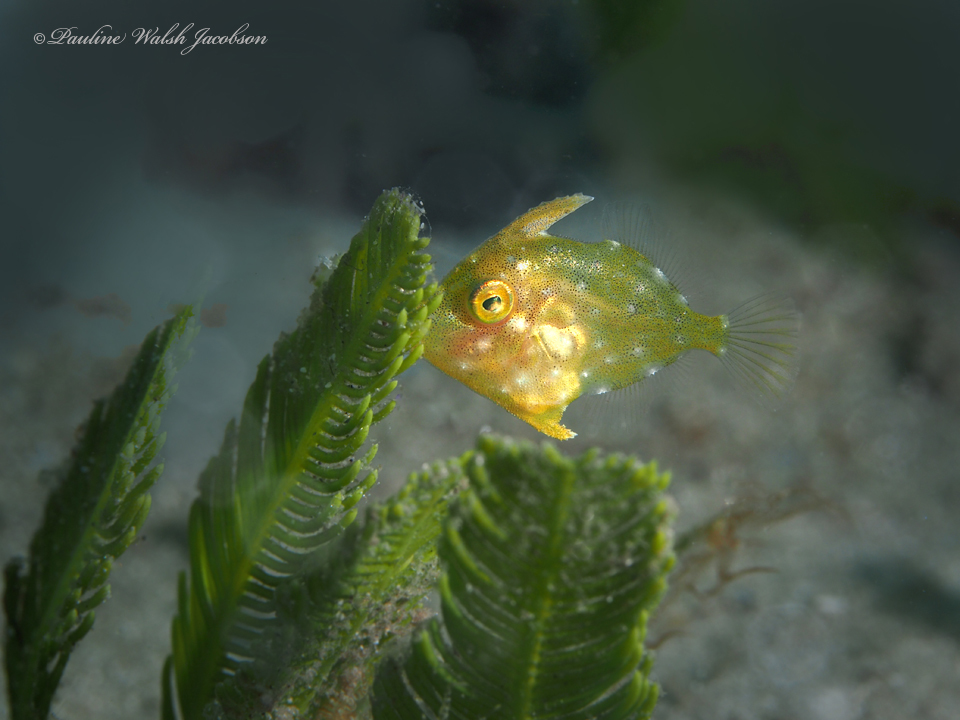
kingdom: Animalia
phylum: Chordata
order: Tetraodontiformes
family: Monacanthidae
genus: Stephanolepis
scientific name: Stephanolepis hispidus
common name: Planehead filefish
